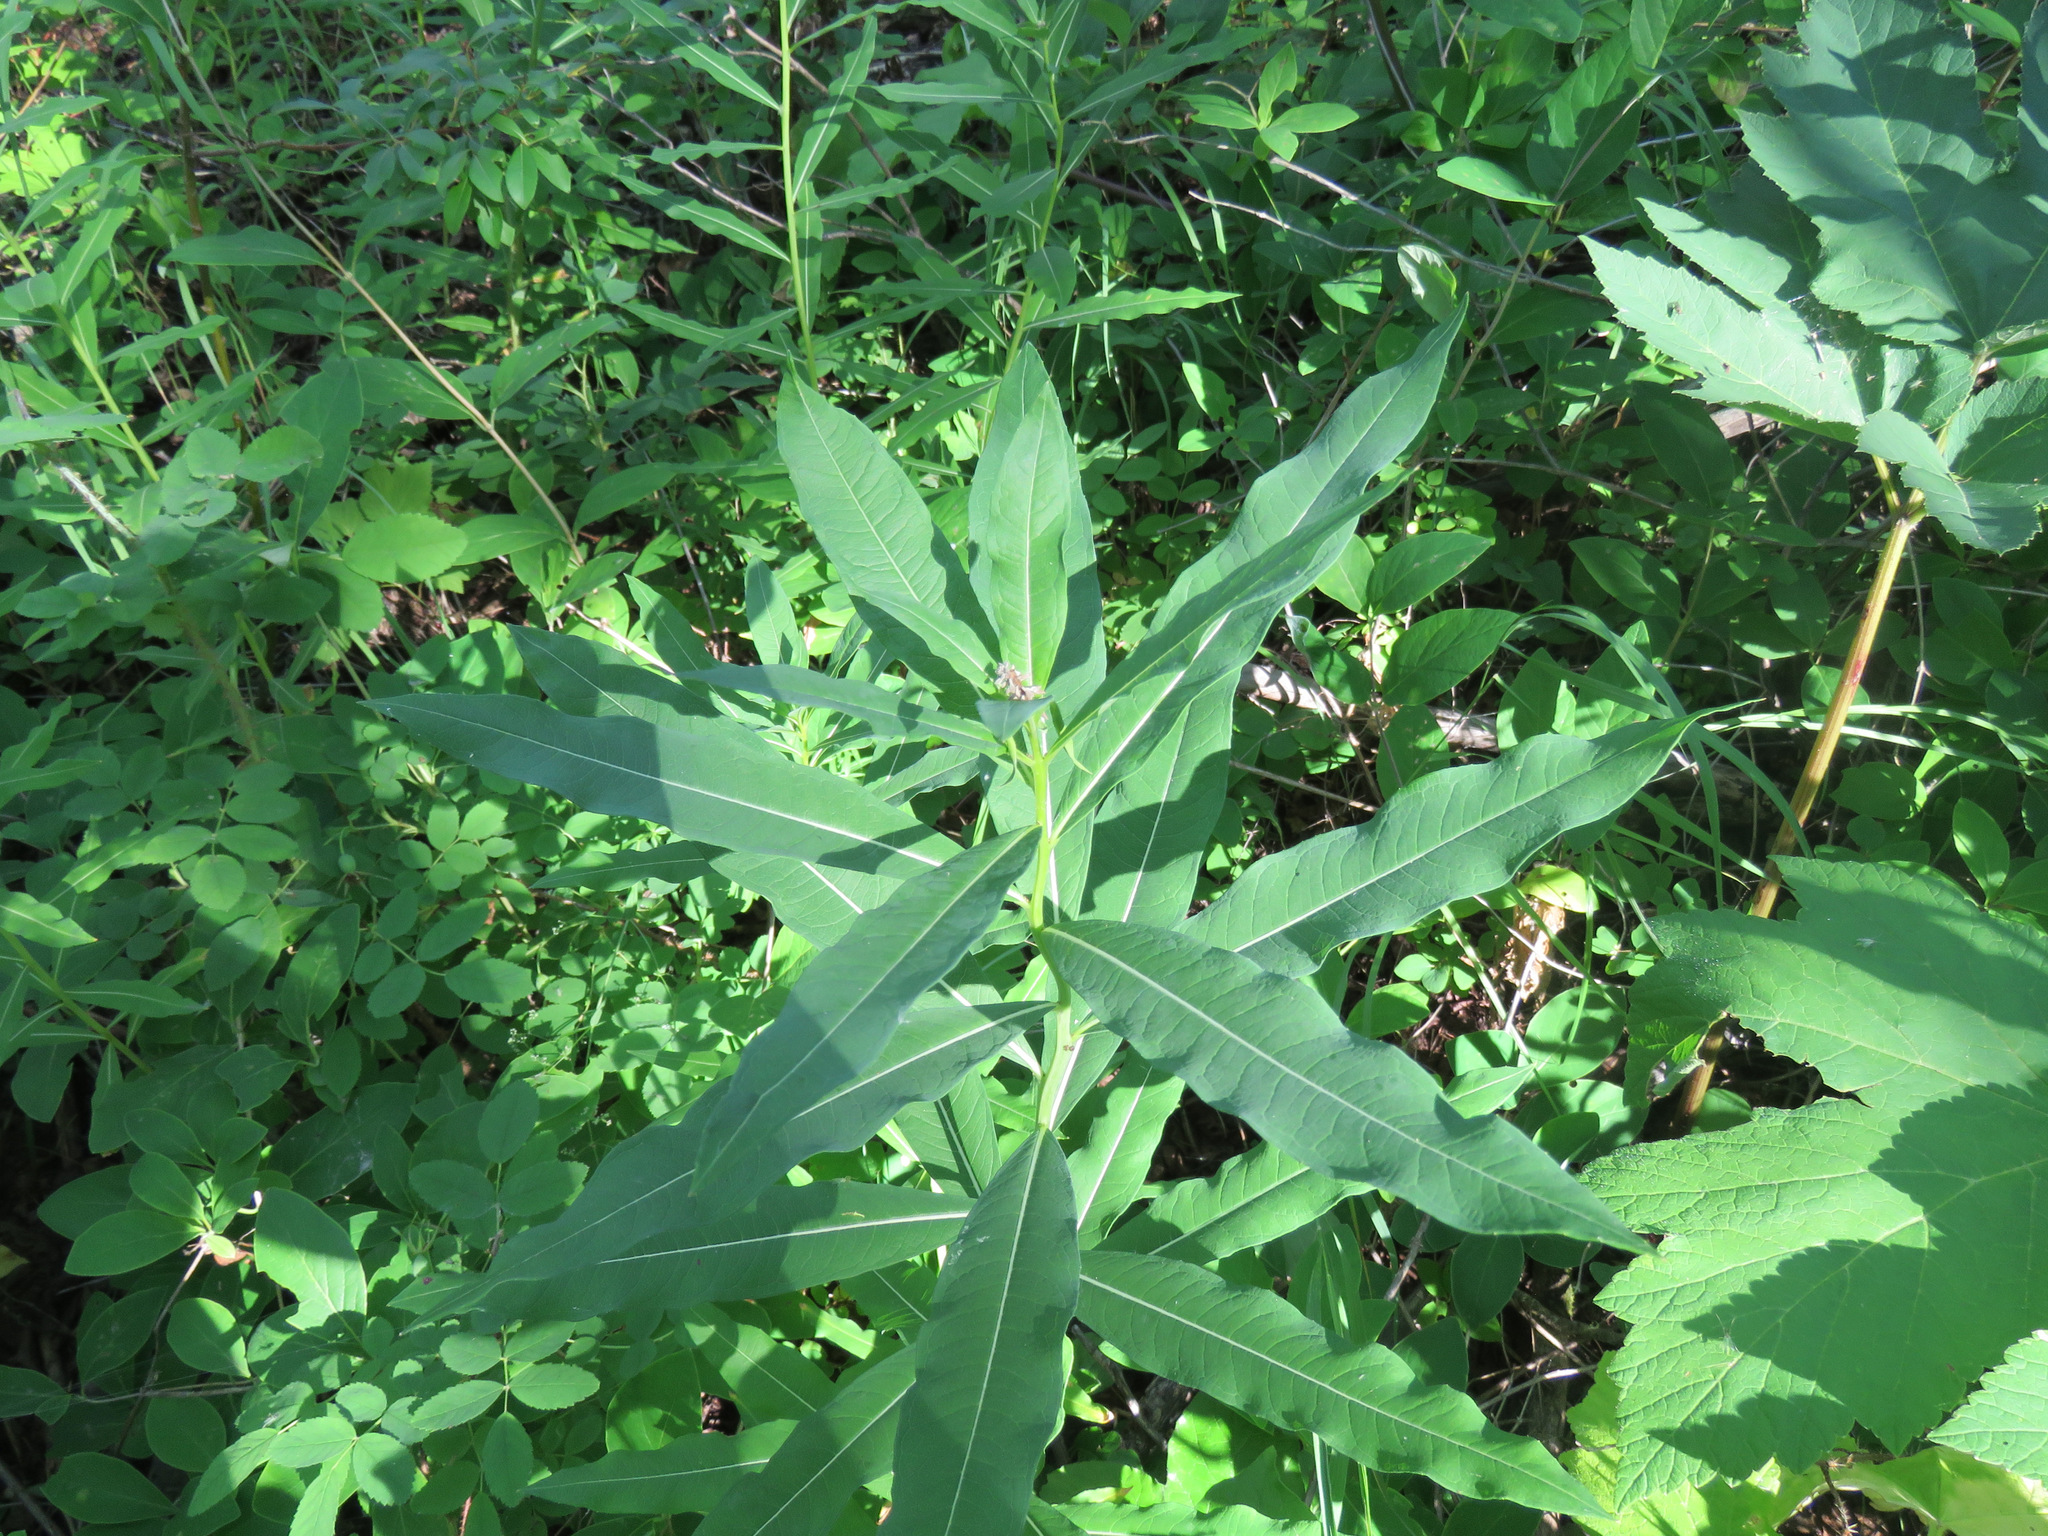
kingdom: Plantae
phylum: Tracheophyta
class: Magnoliopsida
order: Myrtales
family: Onagraceae
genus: Chamaenerion
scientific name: Chamaenerion angustifolium
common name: Fireweed
